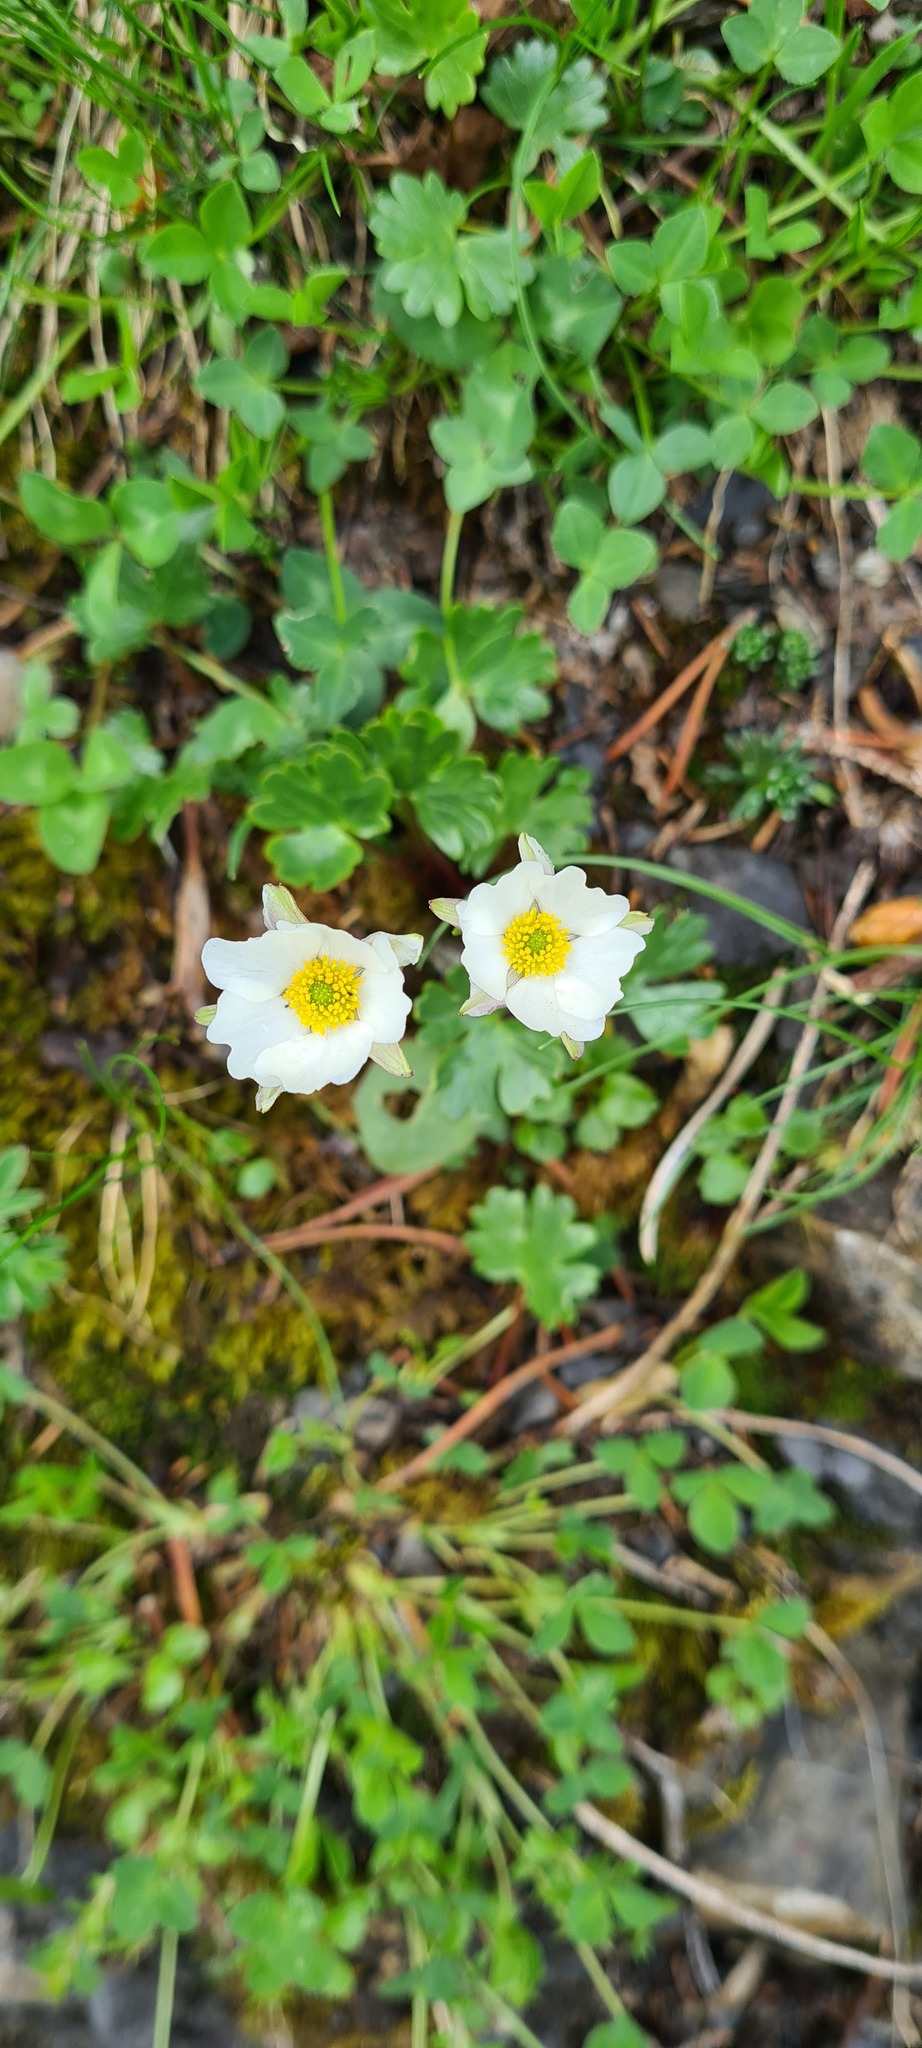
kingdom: Plantae
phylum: Tracheophyta
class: Magnoliopsida
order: Ranunculales
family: Ranunculaceae
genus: Ranunculus
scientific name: Ranunculus alpestris
